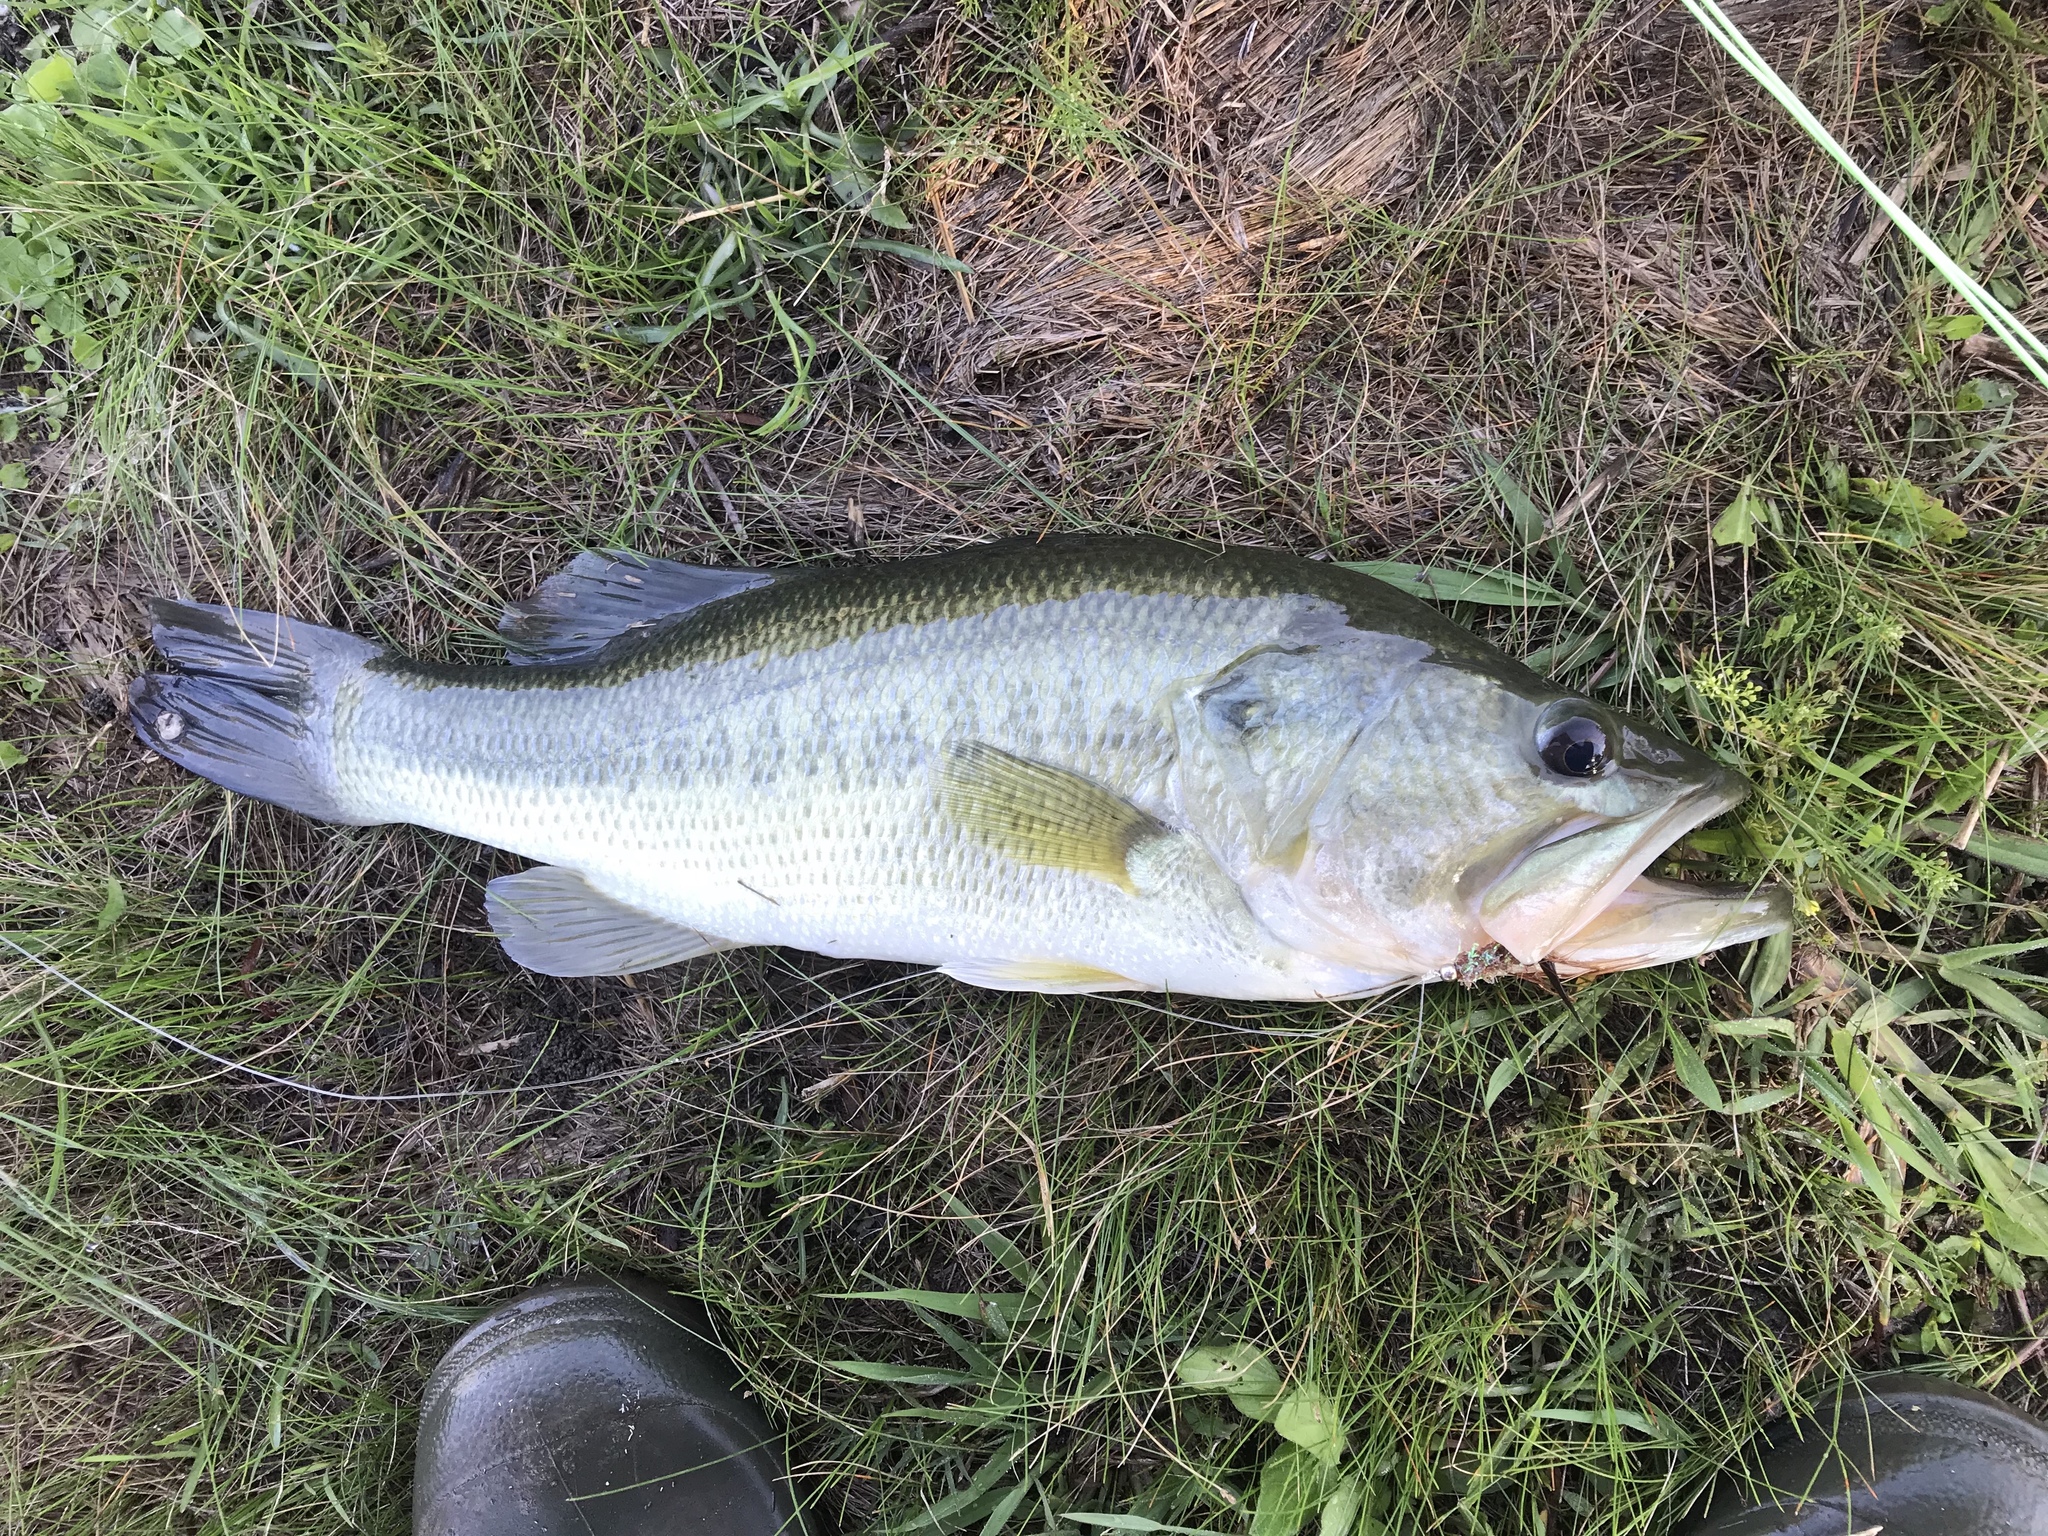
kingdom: Animalia
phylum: Chordata
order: Perciformes
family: Centrarchidae
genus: Micropterus
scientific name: Micropterus
